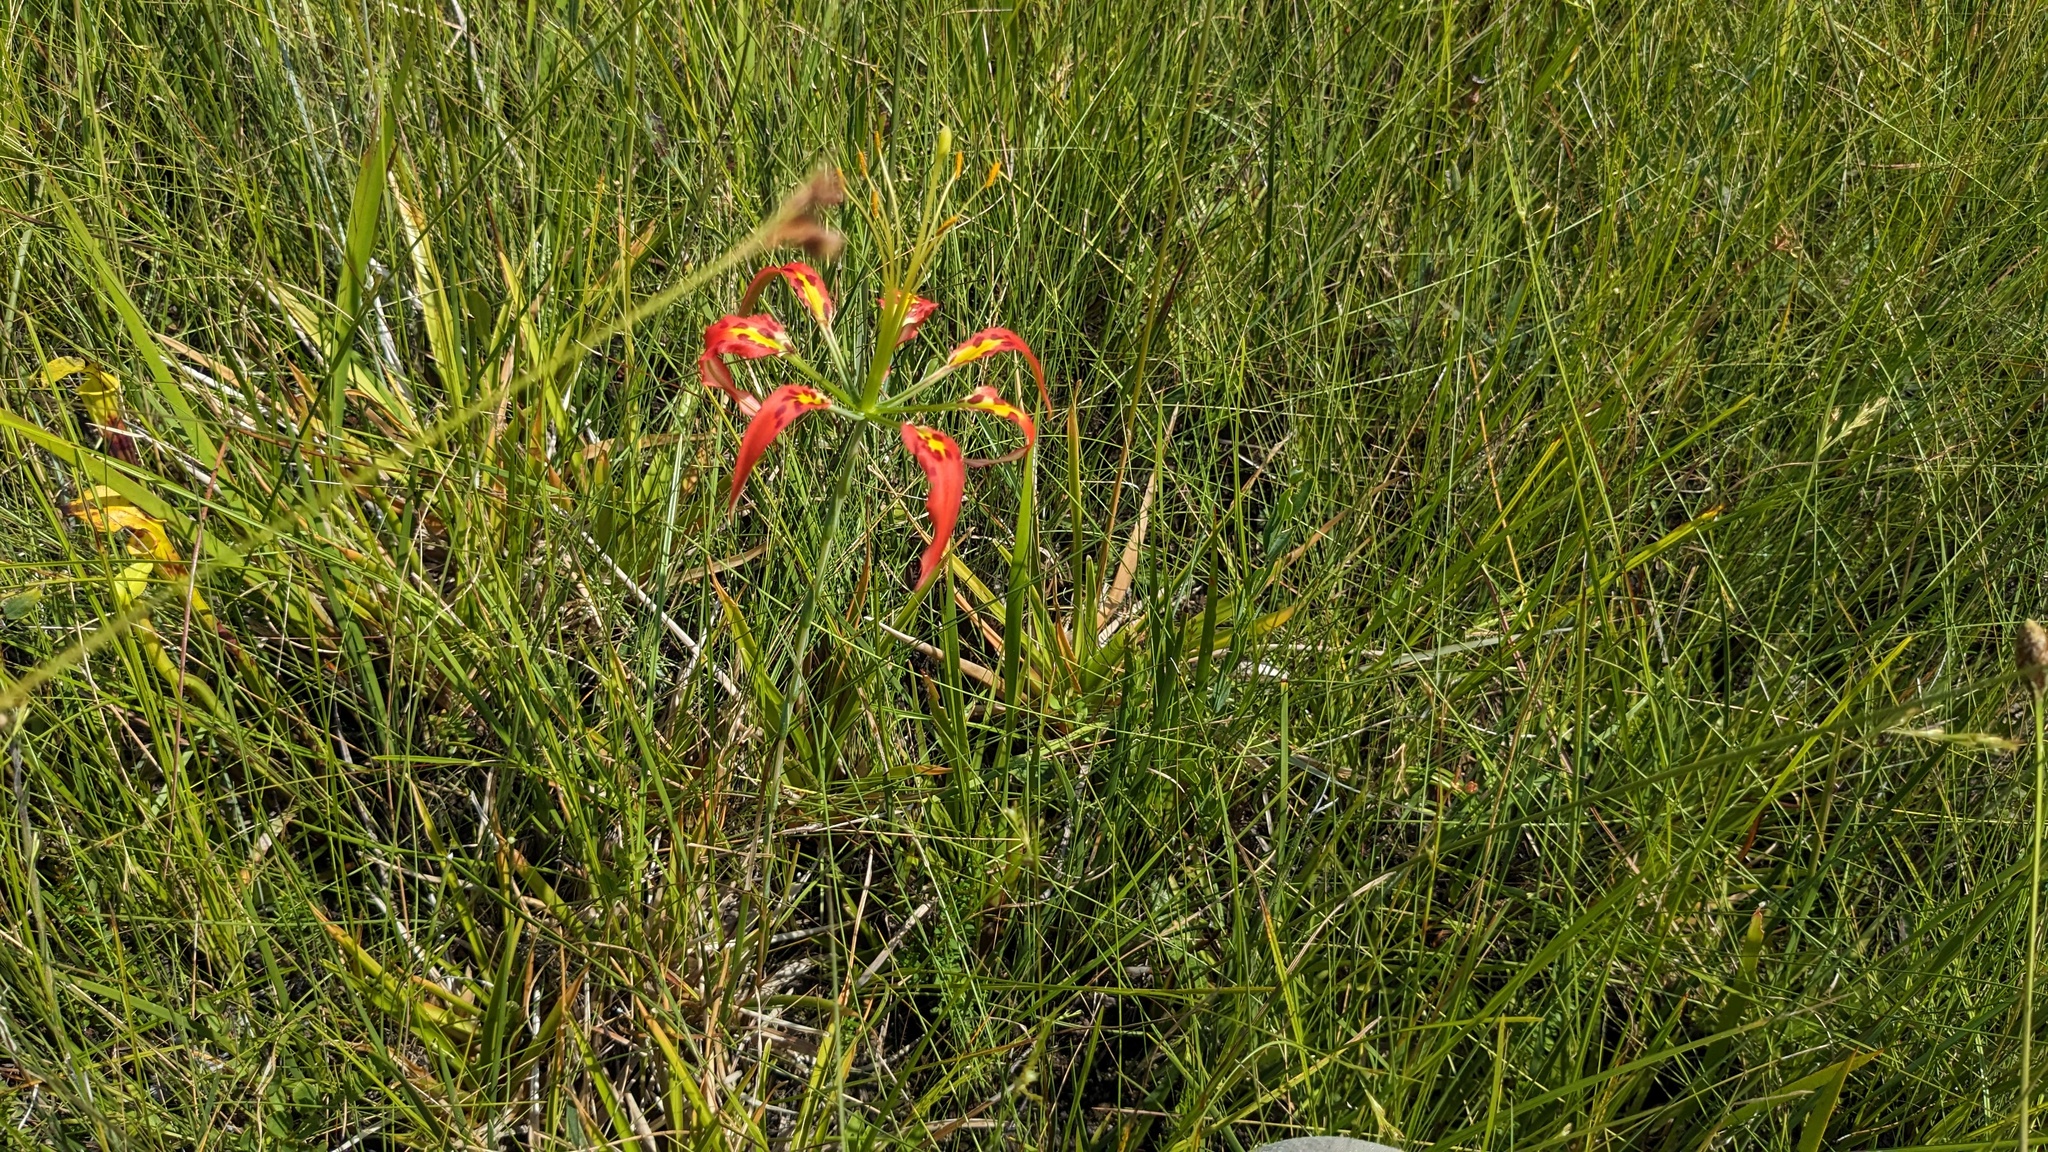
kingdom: Plantae
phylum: Tracheophyta
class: Liliopsida
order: Liliales
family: Liliaceae
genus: Lilium
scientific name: Lilium catesbaei
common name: Catesby's lily
